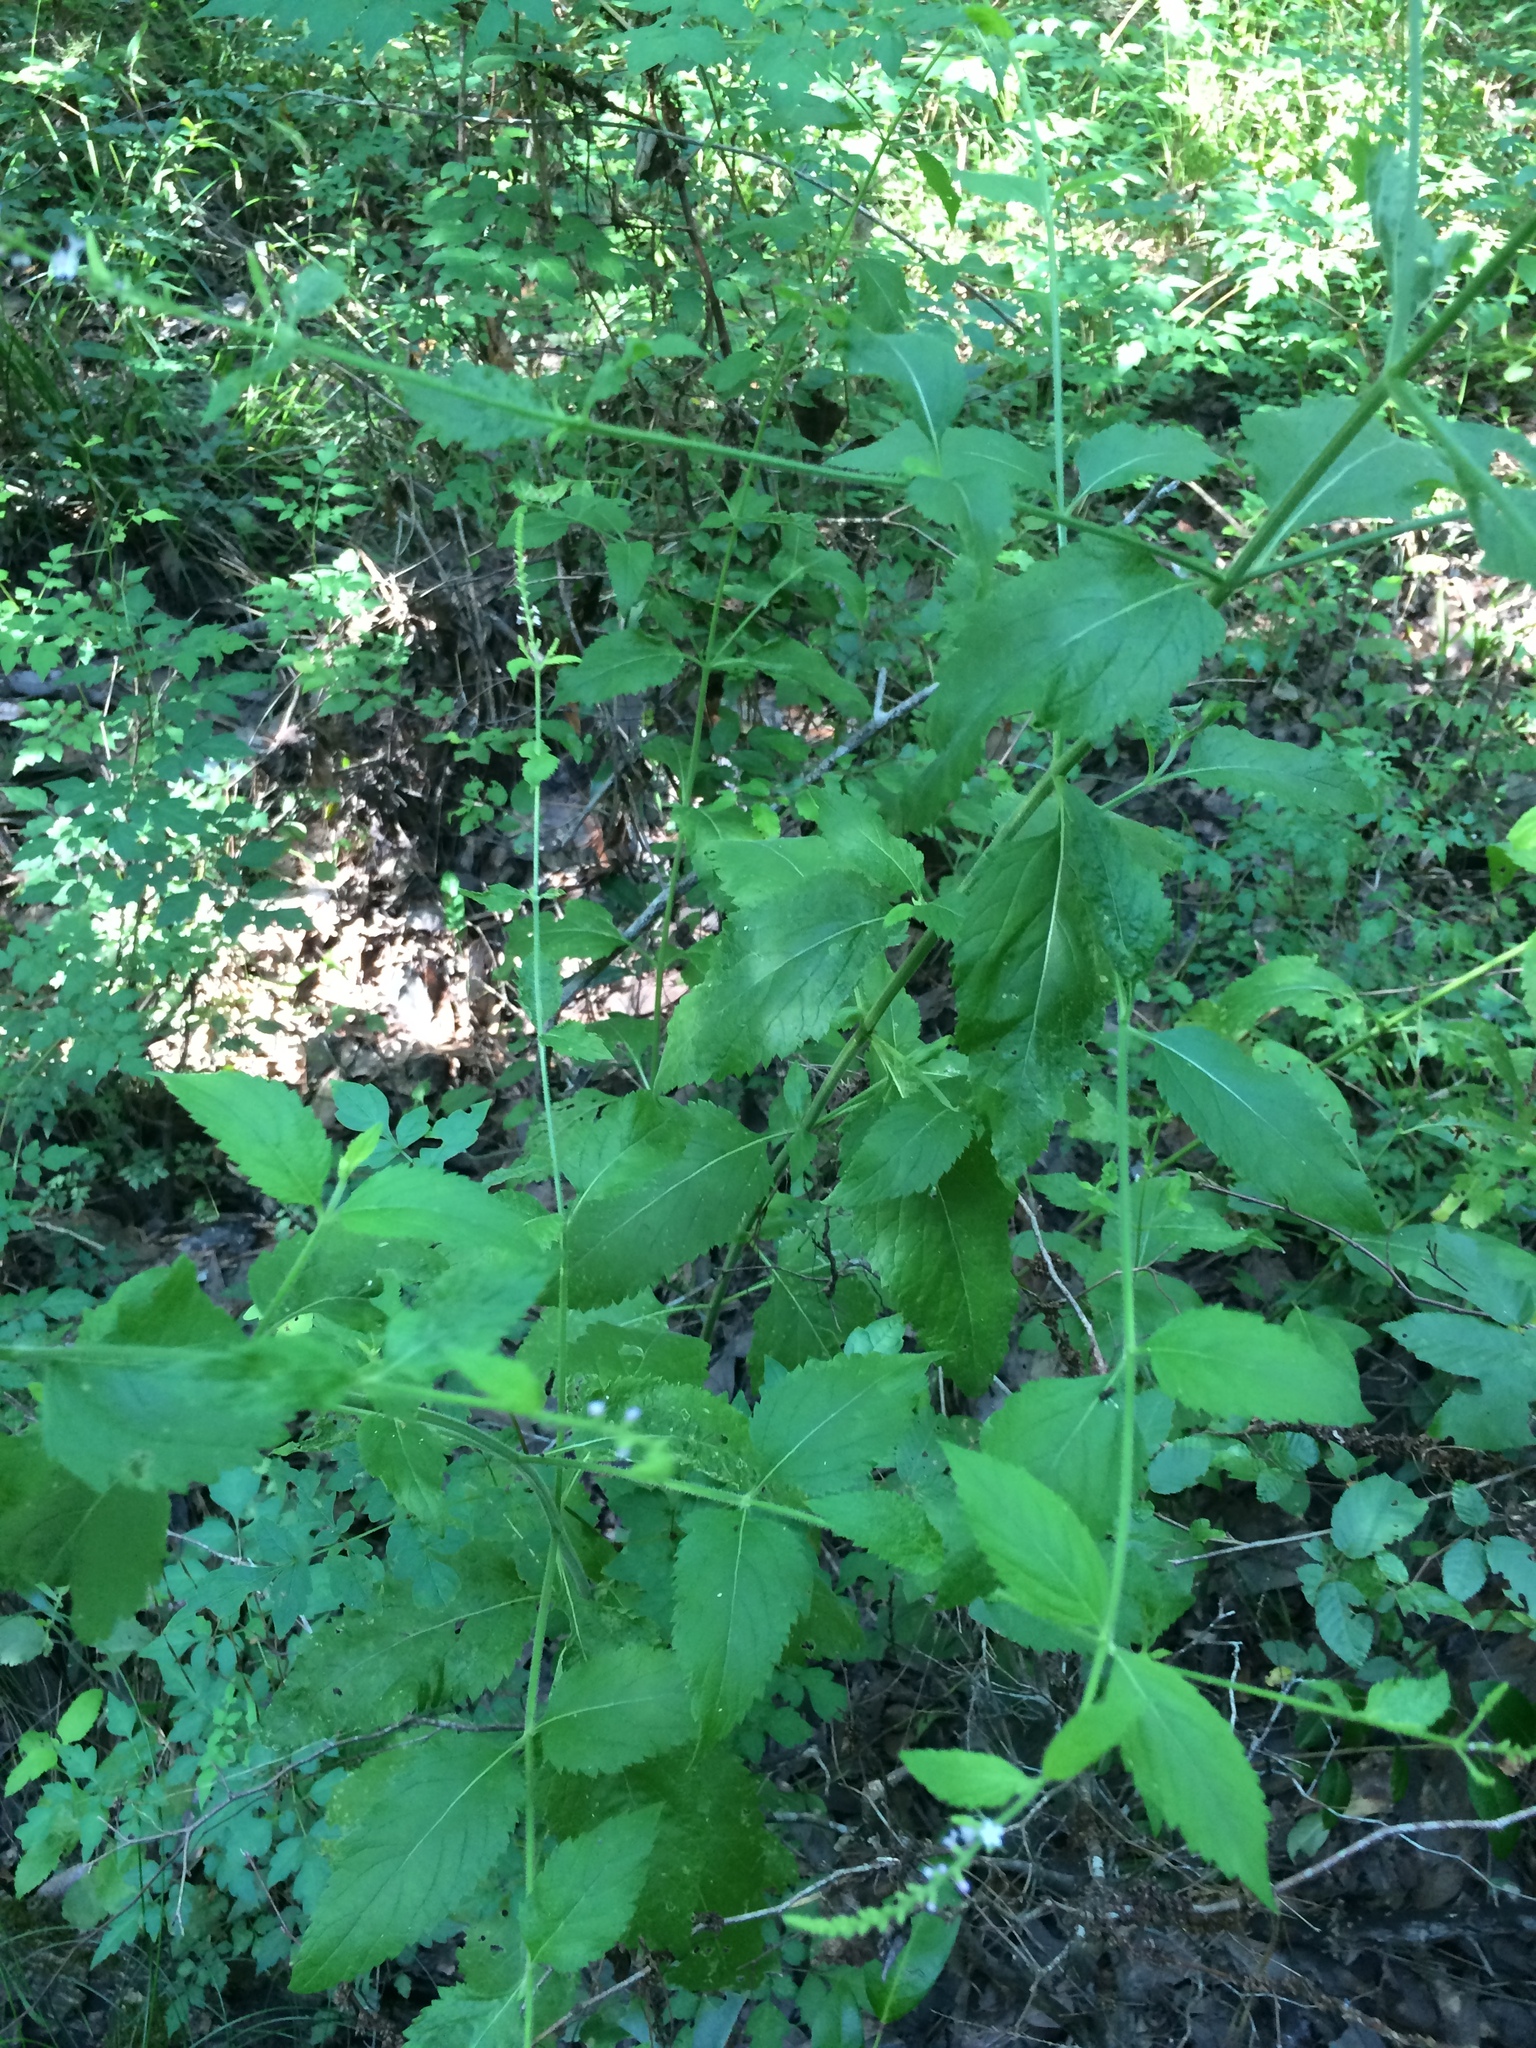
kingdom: Plantae
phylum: Tracheophyta
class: Magnoliopsida
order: Lamiales
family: Verbenaceae
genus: Verbena
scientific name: Verbena urticifolia
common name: Nettle-leaved vervain
